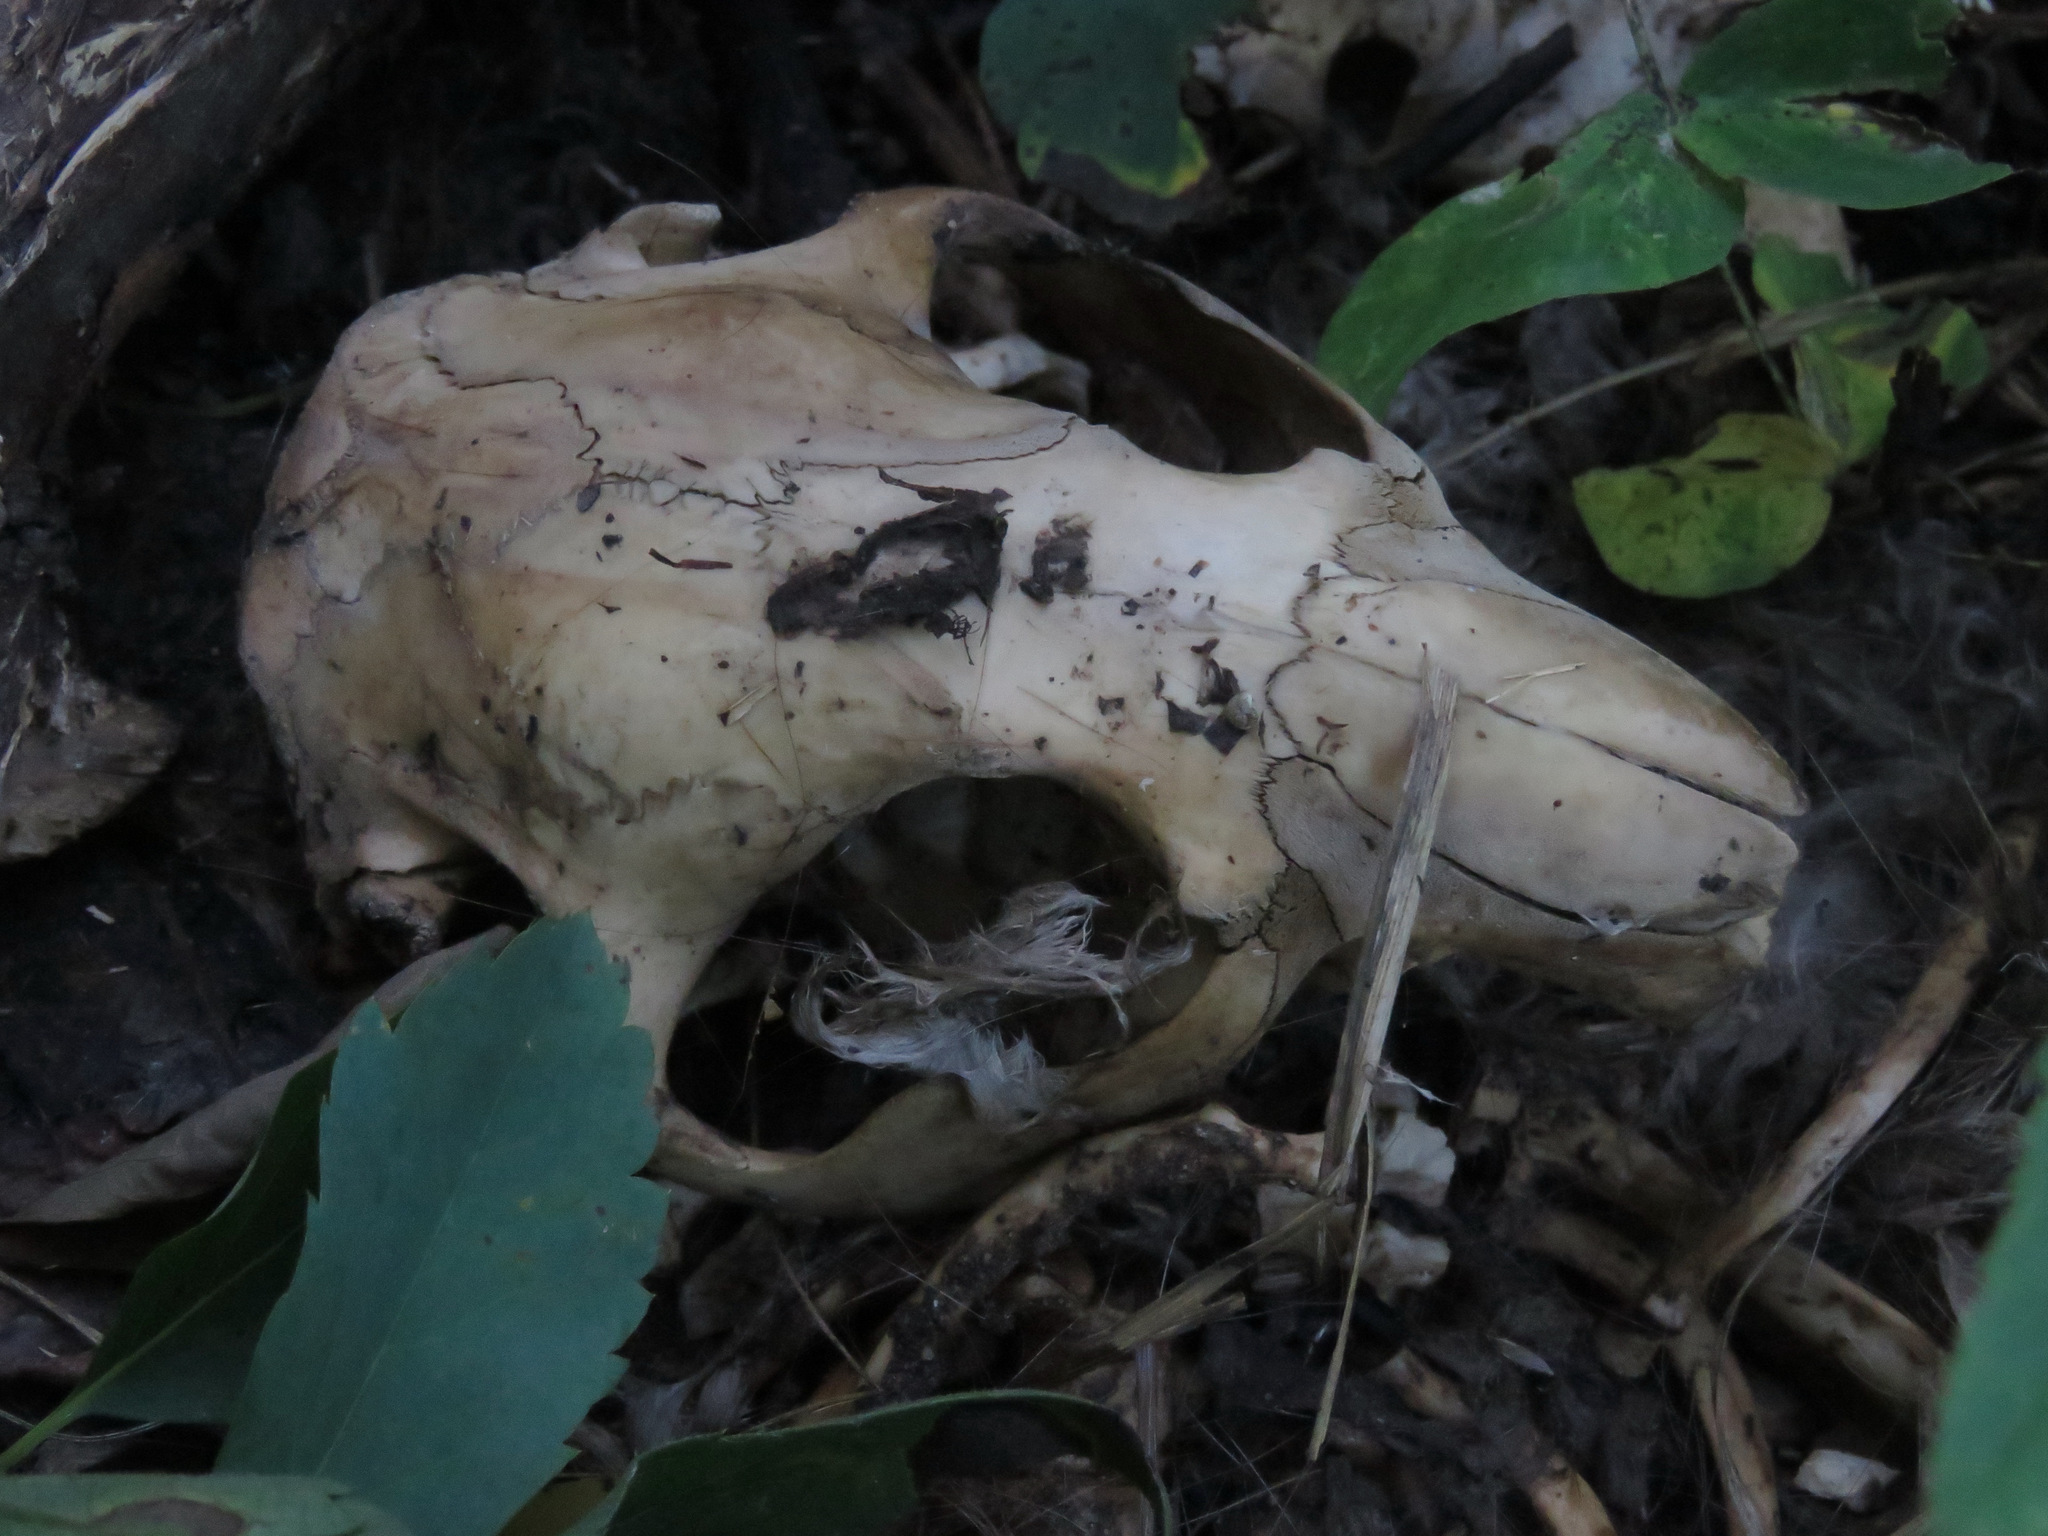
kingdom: Animalia
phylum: Chordata
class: Mammalia
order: Rodentia
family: Castoridae
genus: Castor
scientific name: Castor canadensis
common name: American beaver
